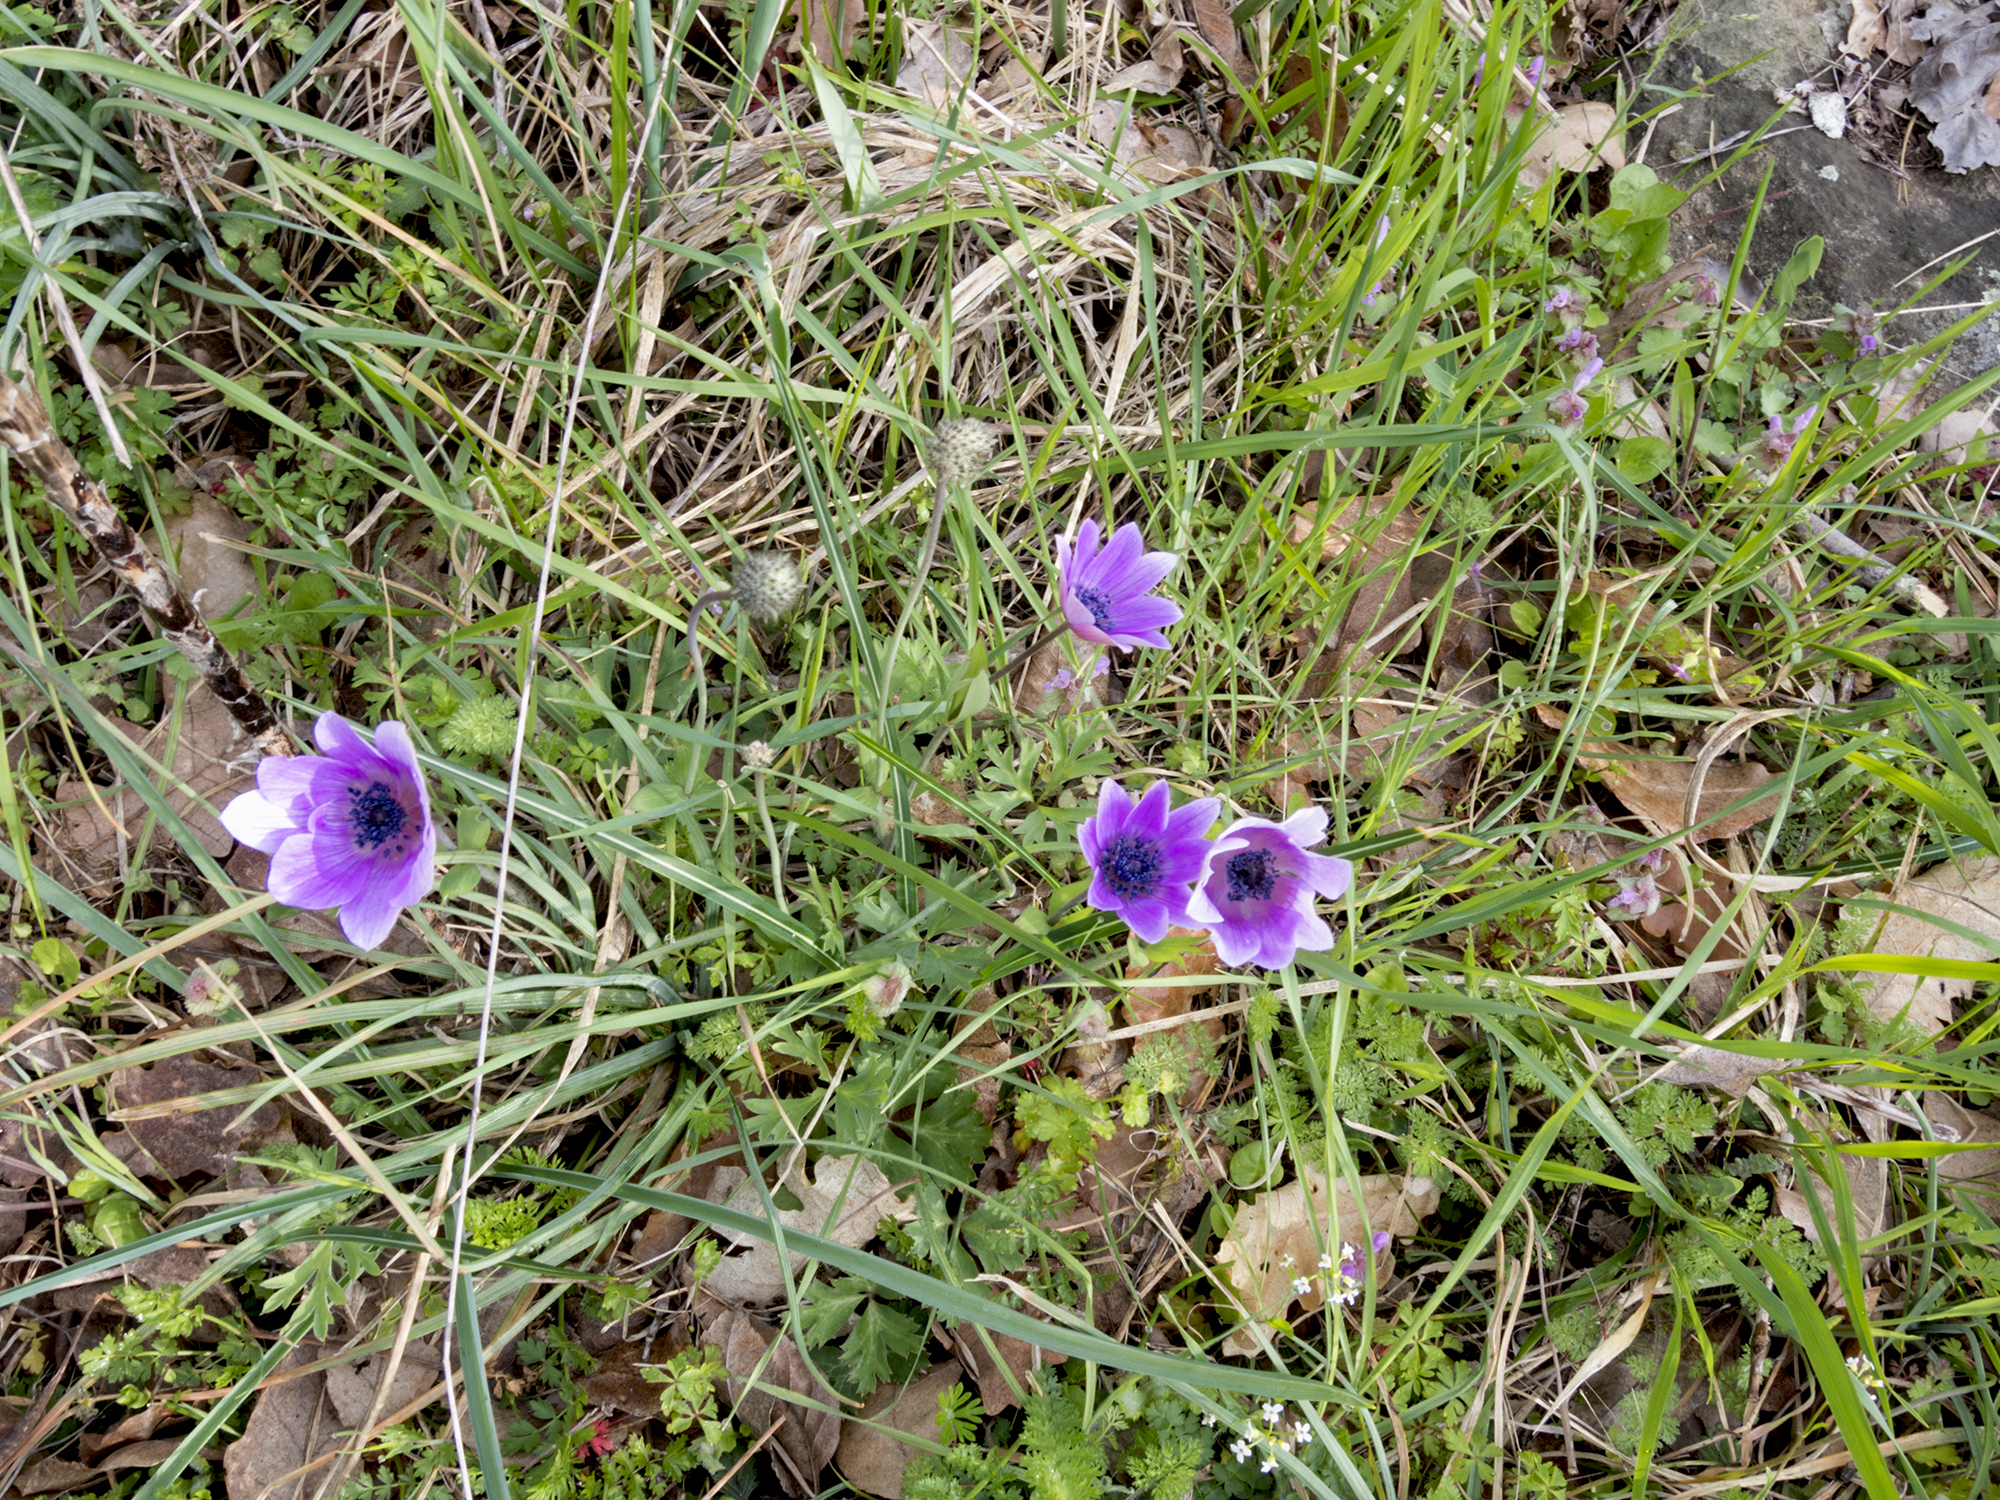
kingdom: Plantae
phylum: Tracheophyta
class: Magnoliopsida
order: Ranunculales
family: Ranunculaceae
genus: Anemone
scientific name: Anemone pavonina
